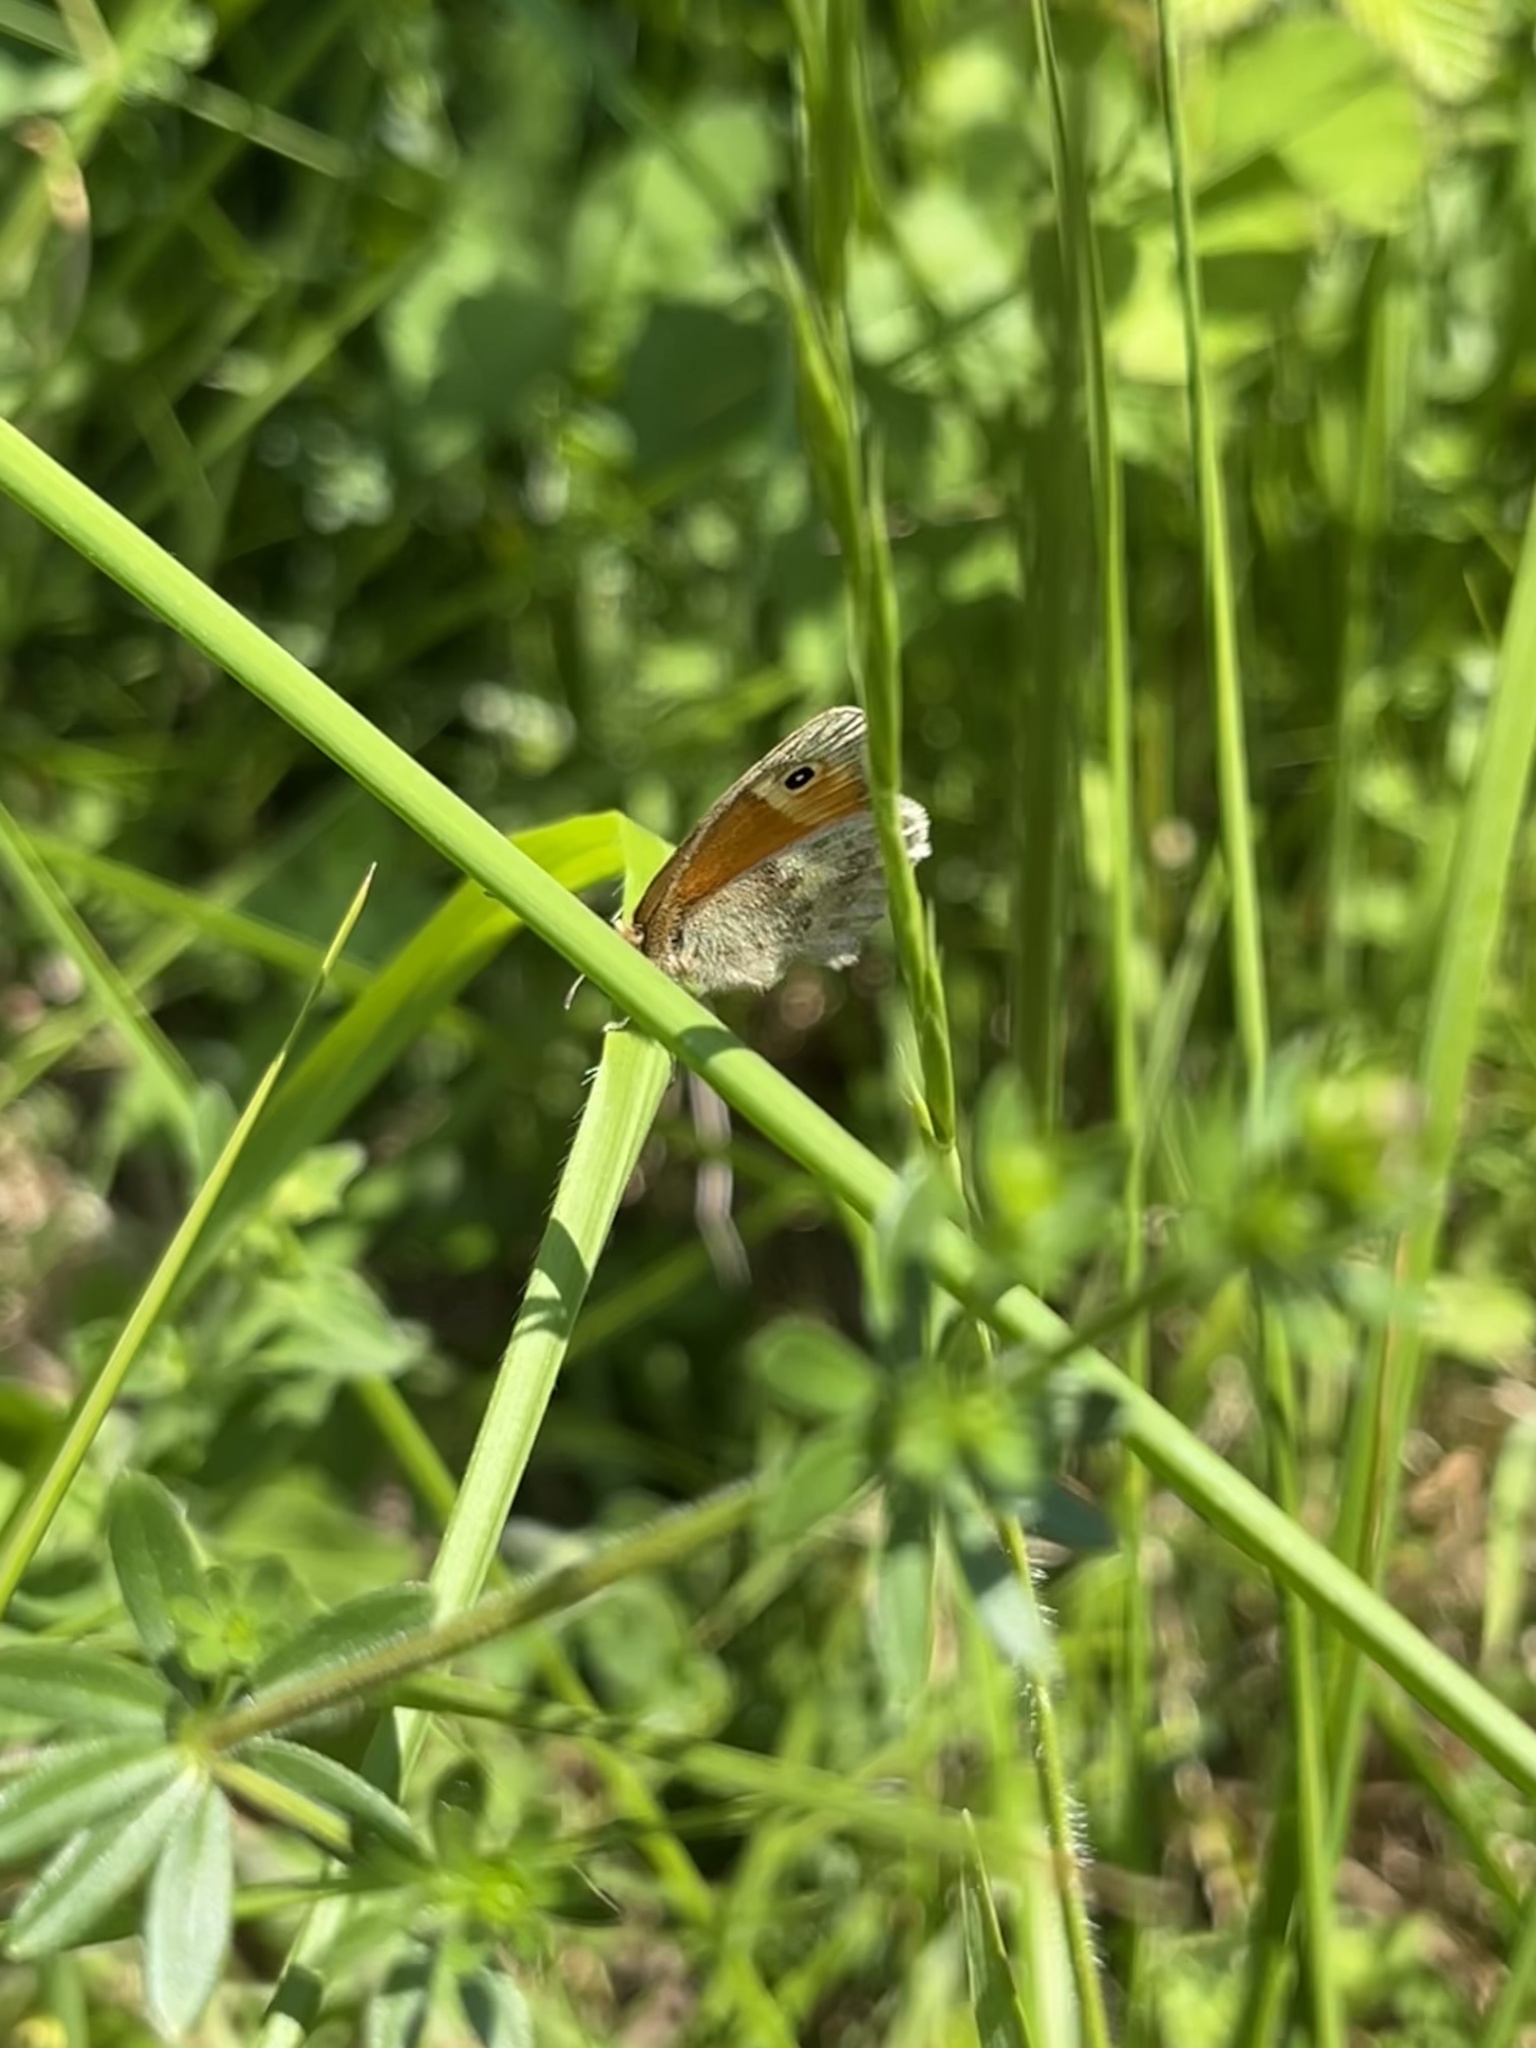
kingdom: Animalia
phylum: Arthropoda
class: Insecta
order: Lepidoptera
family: Nymphalidae
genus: Coenonympha
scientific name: Coenonympha pamphilus
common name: Small heath
